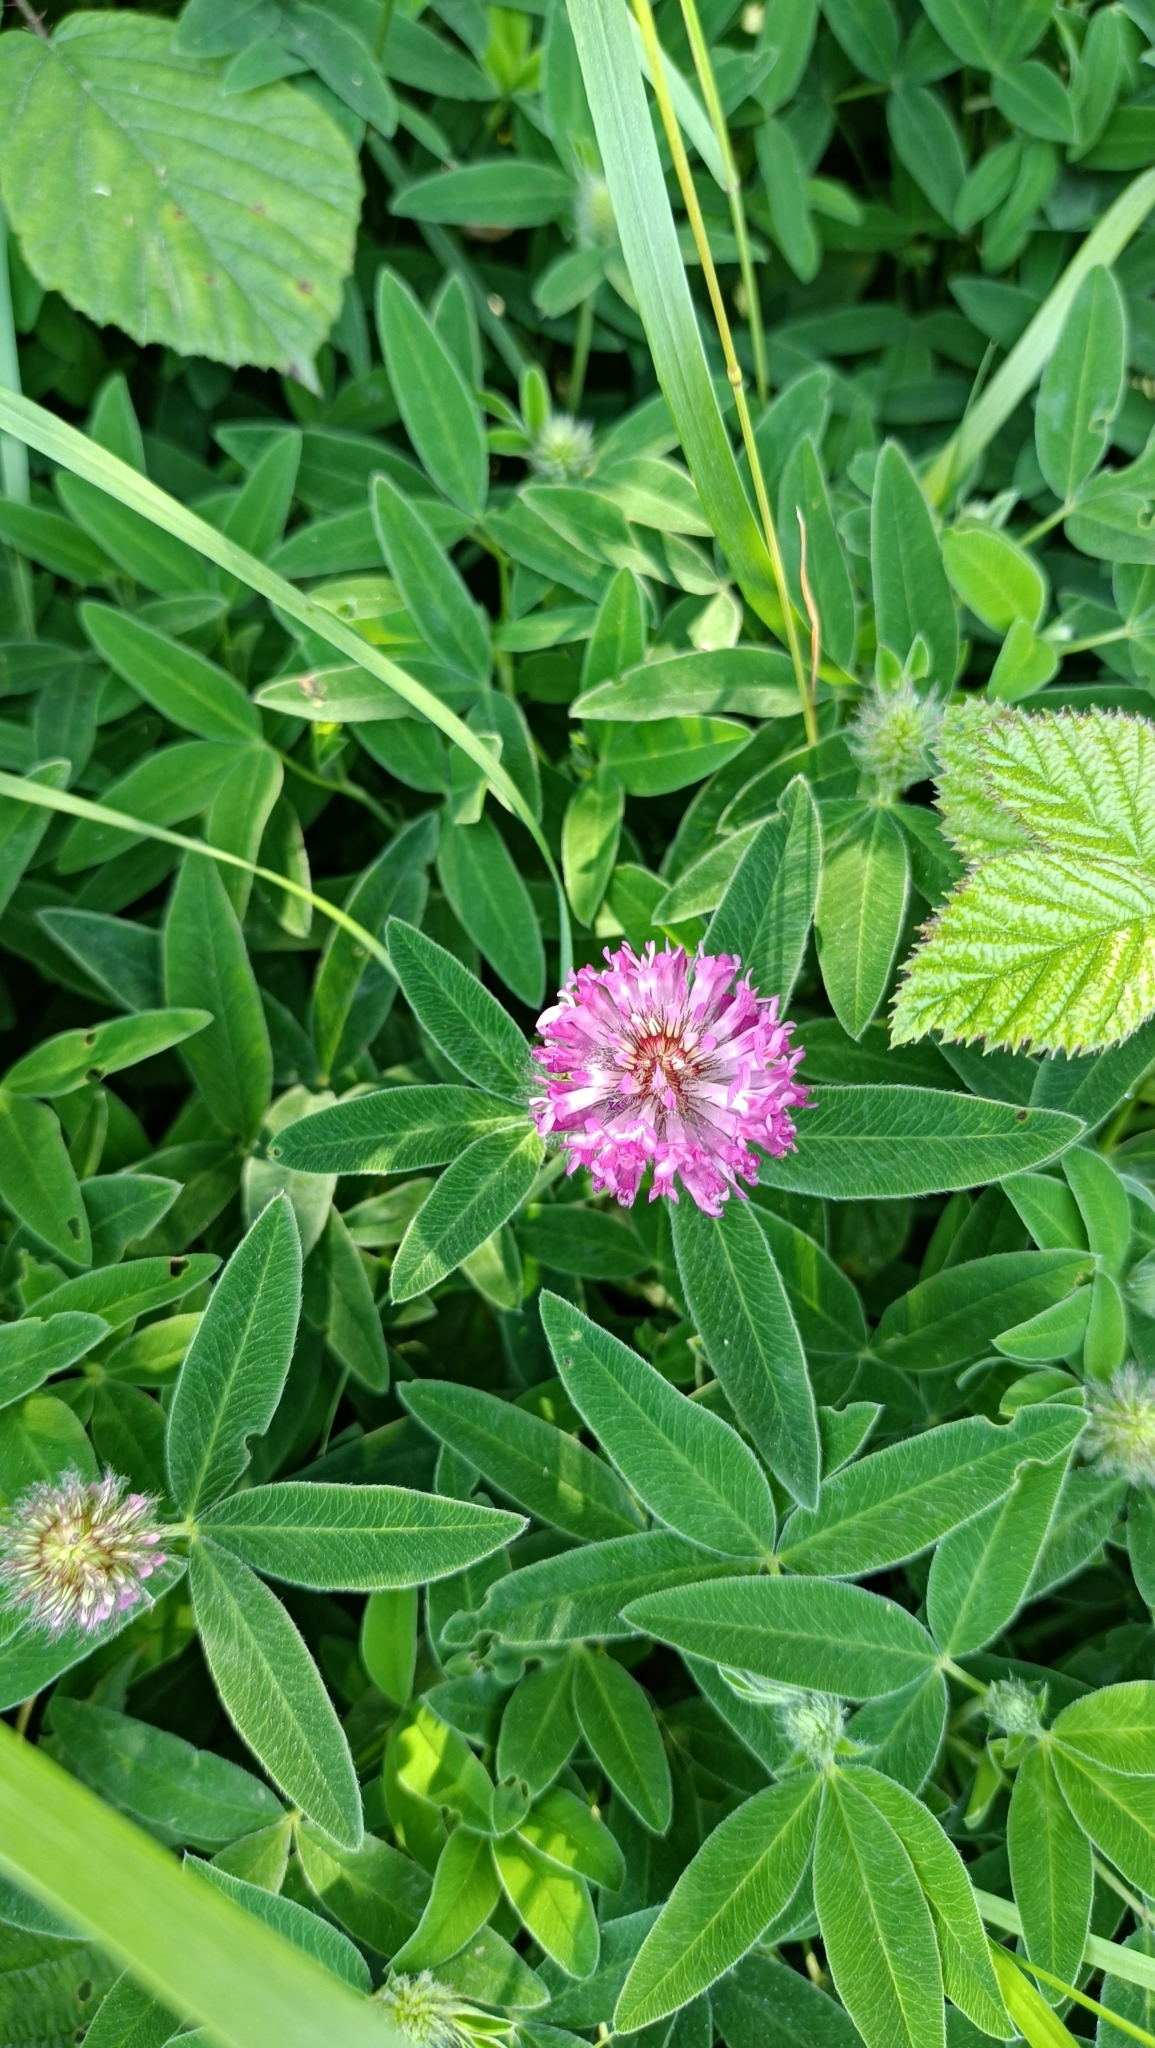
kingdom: Plantae
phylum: Tracheophyta
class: Magnoliopsida
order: Fabales
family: Fabaceae
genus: Trifolium
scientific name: Trifolium medium
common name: Zigzag clover
